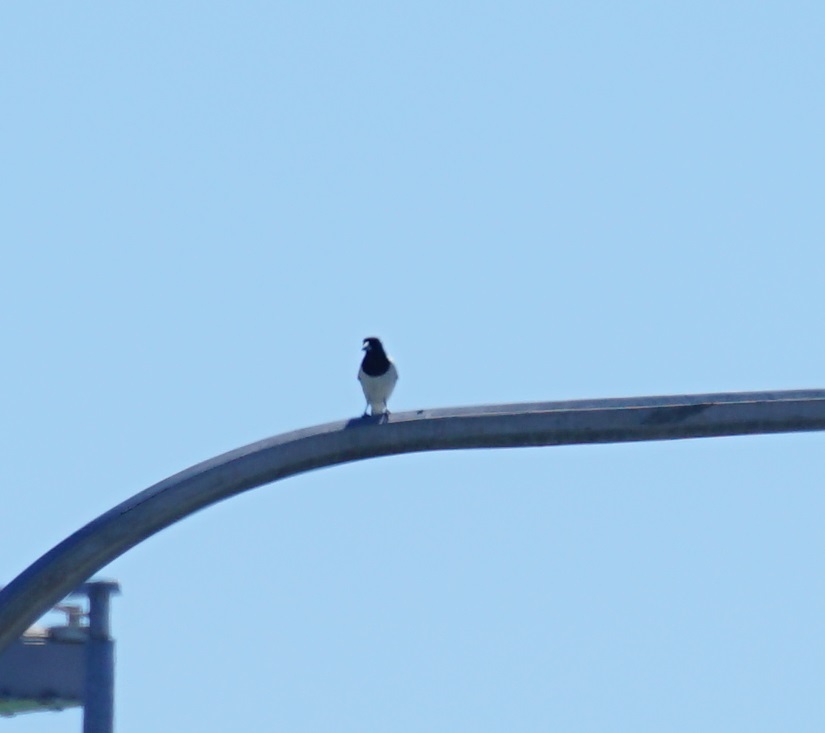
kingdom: Animalia
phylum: Chordata
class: Aves
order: Passeriformes
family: Cracticidae
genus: Cracticus
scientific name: Cracticus nigrogularis
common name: Pied butcherbird
